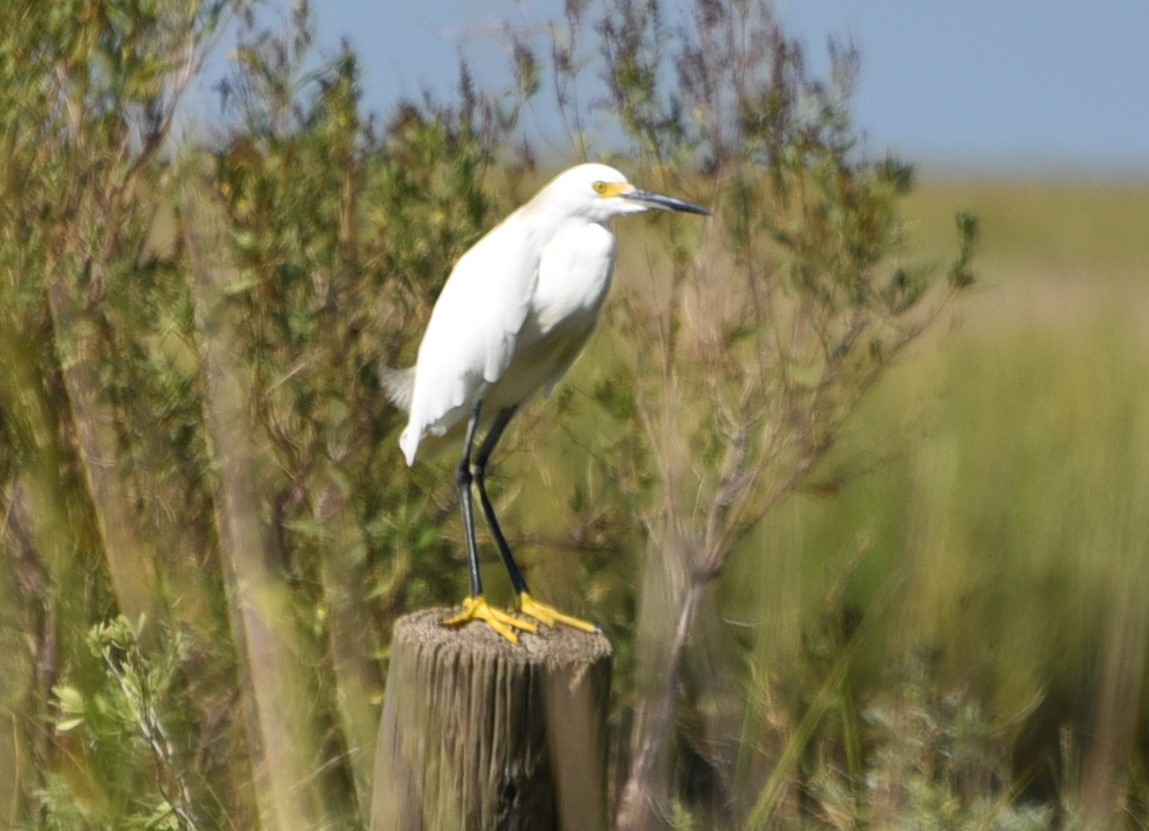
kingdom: Animalia
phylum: Chordata
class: Aves
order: Pelecaniformes
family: Ardeidae
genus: Egretta
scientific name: Egretta thula
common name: Snowy egret
